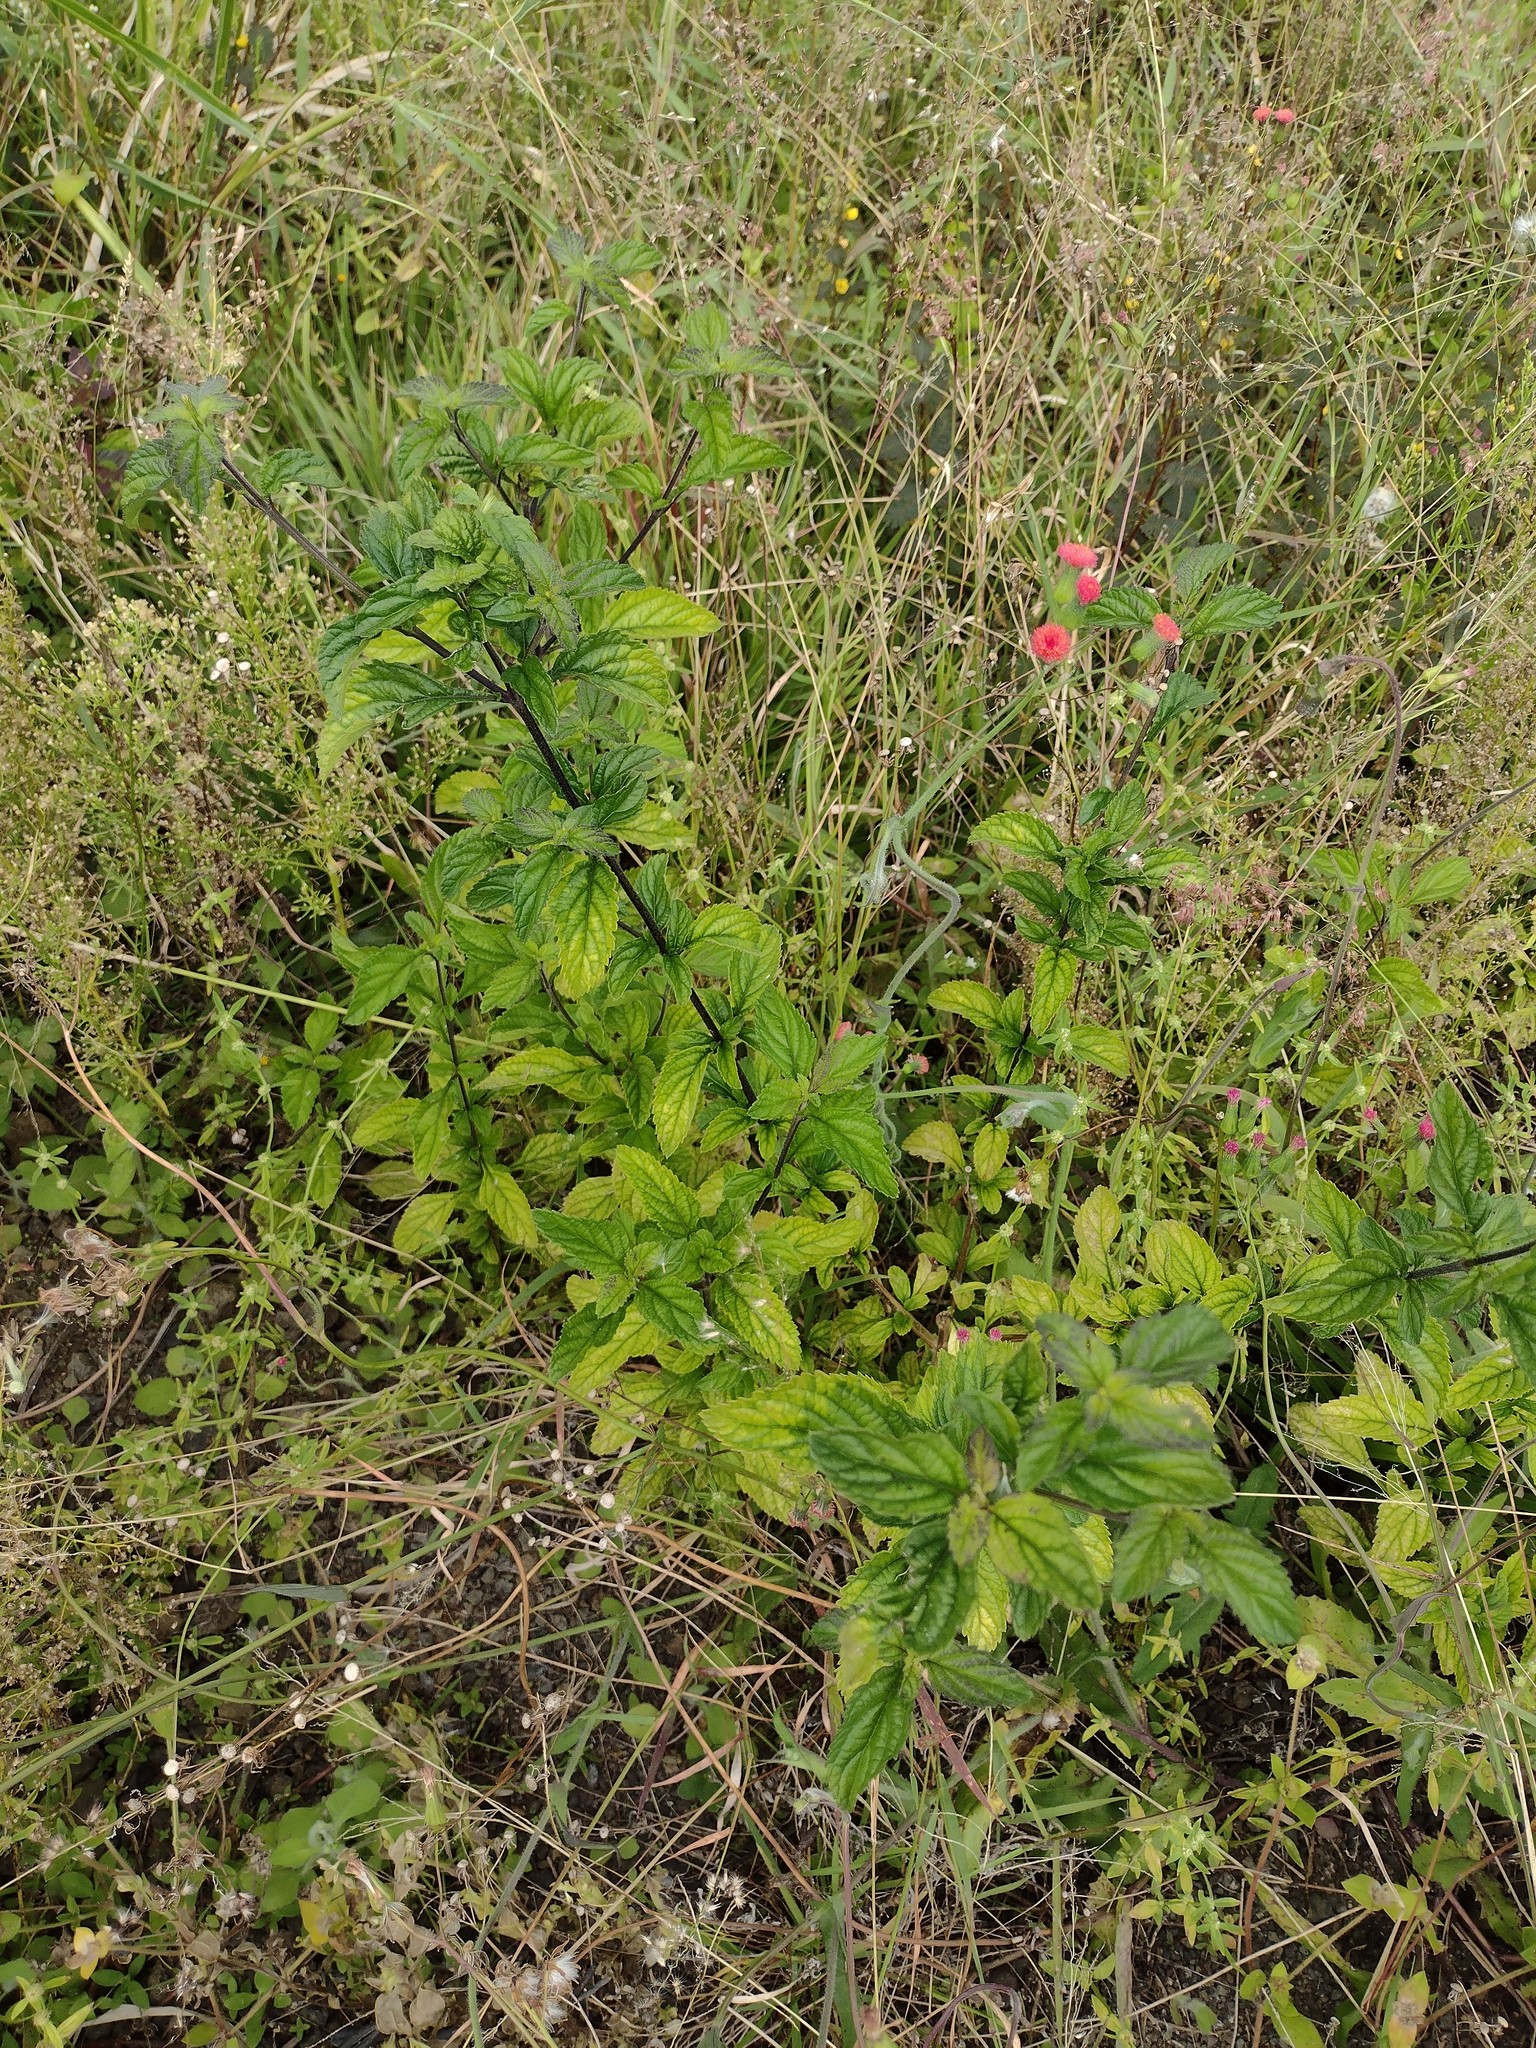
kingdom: Plantae
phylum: Tracheophyta
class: Magnoliopsida
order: Lamiales
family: Verbenaceae
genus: Stachytarpheta
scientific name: Stachytarpheta cayennensis
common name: Cayenne porterweed
